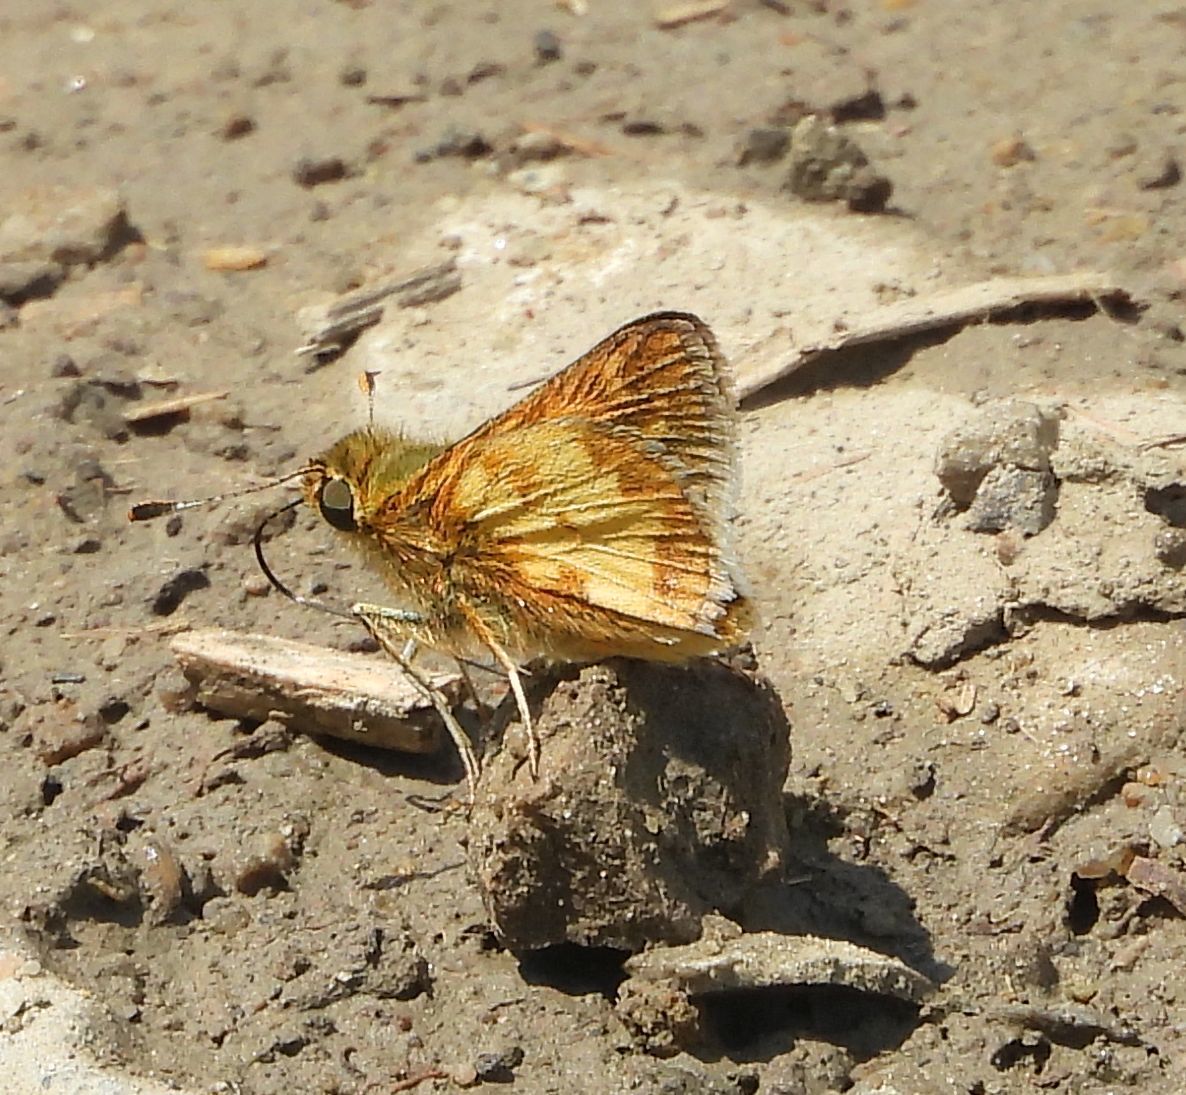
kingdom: Animalia
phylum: Arthropoda
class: Insecta
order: Lepidoptera
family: Hesperiidae
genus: Polites
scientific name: Polites coras
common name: Peck's skipper
